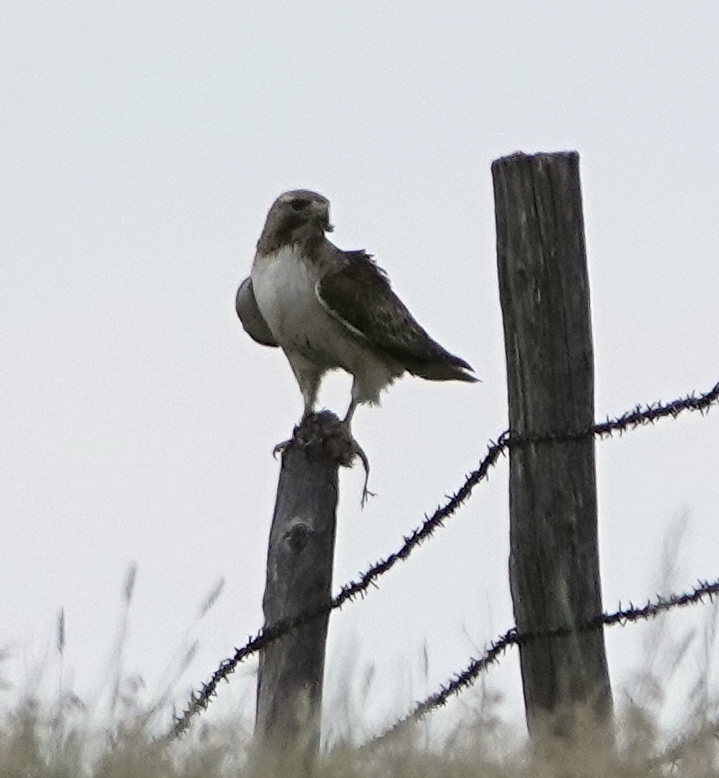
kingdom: Animalia
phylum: Chordata
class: Aves
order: Accipitriformes
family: Accipitridae
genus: Buteo
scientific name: Buteo jamaicensis
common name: Red-tailed hawk
